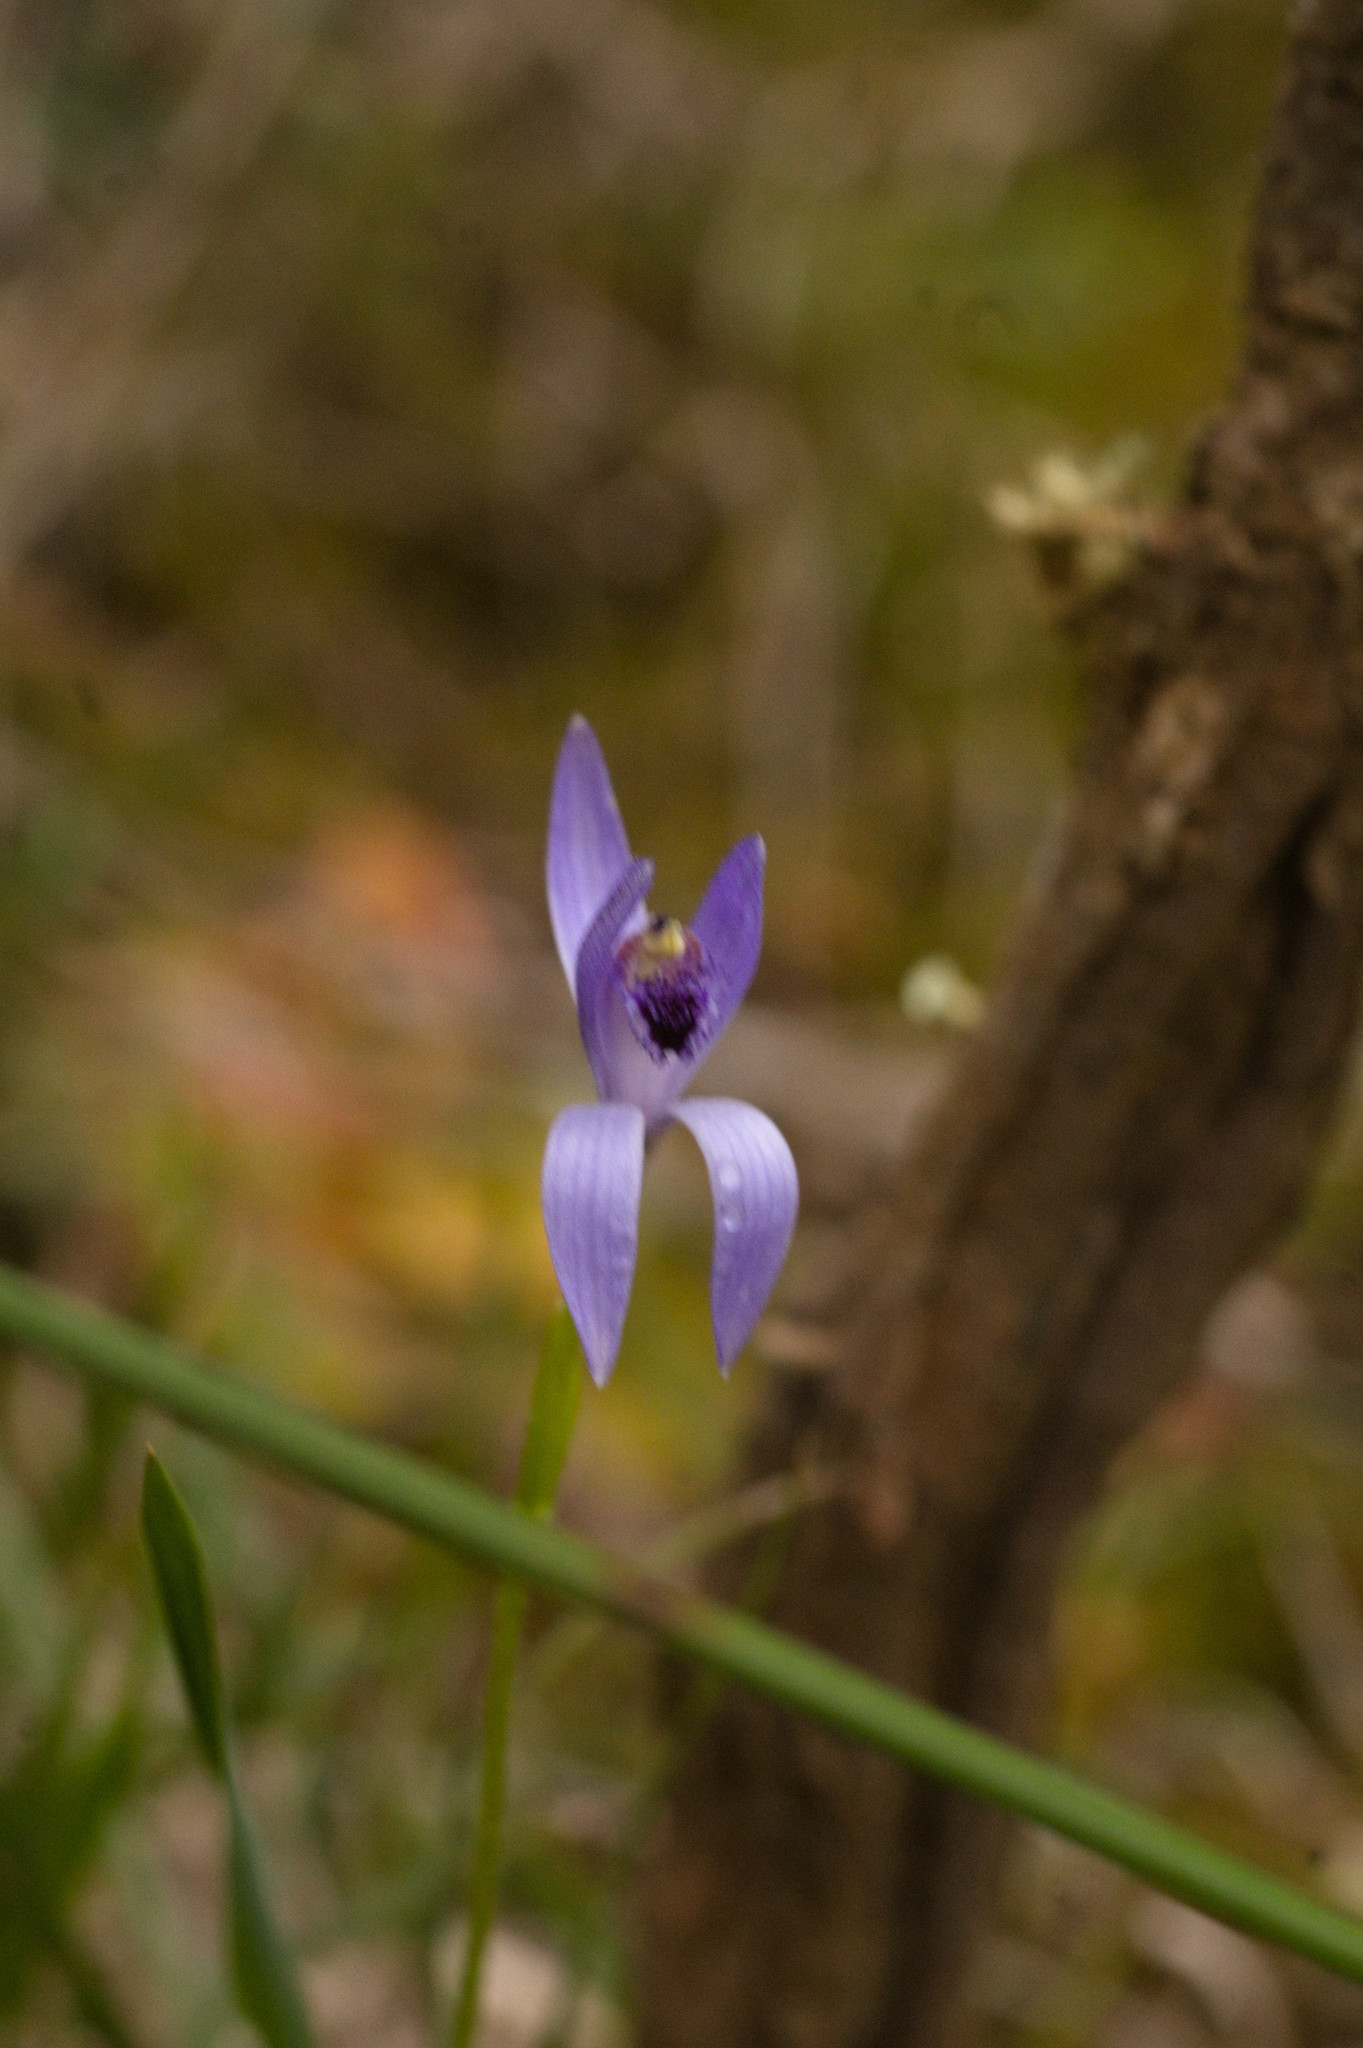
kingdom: Plantae
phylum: Tracheophyta
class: Liliopsida
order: Asparagales
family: Orchidaceae
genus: Pheladenia
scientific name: Pheladenia deformis
